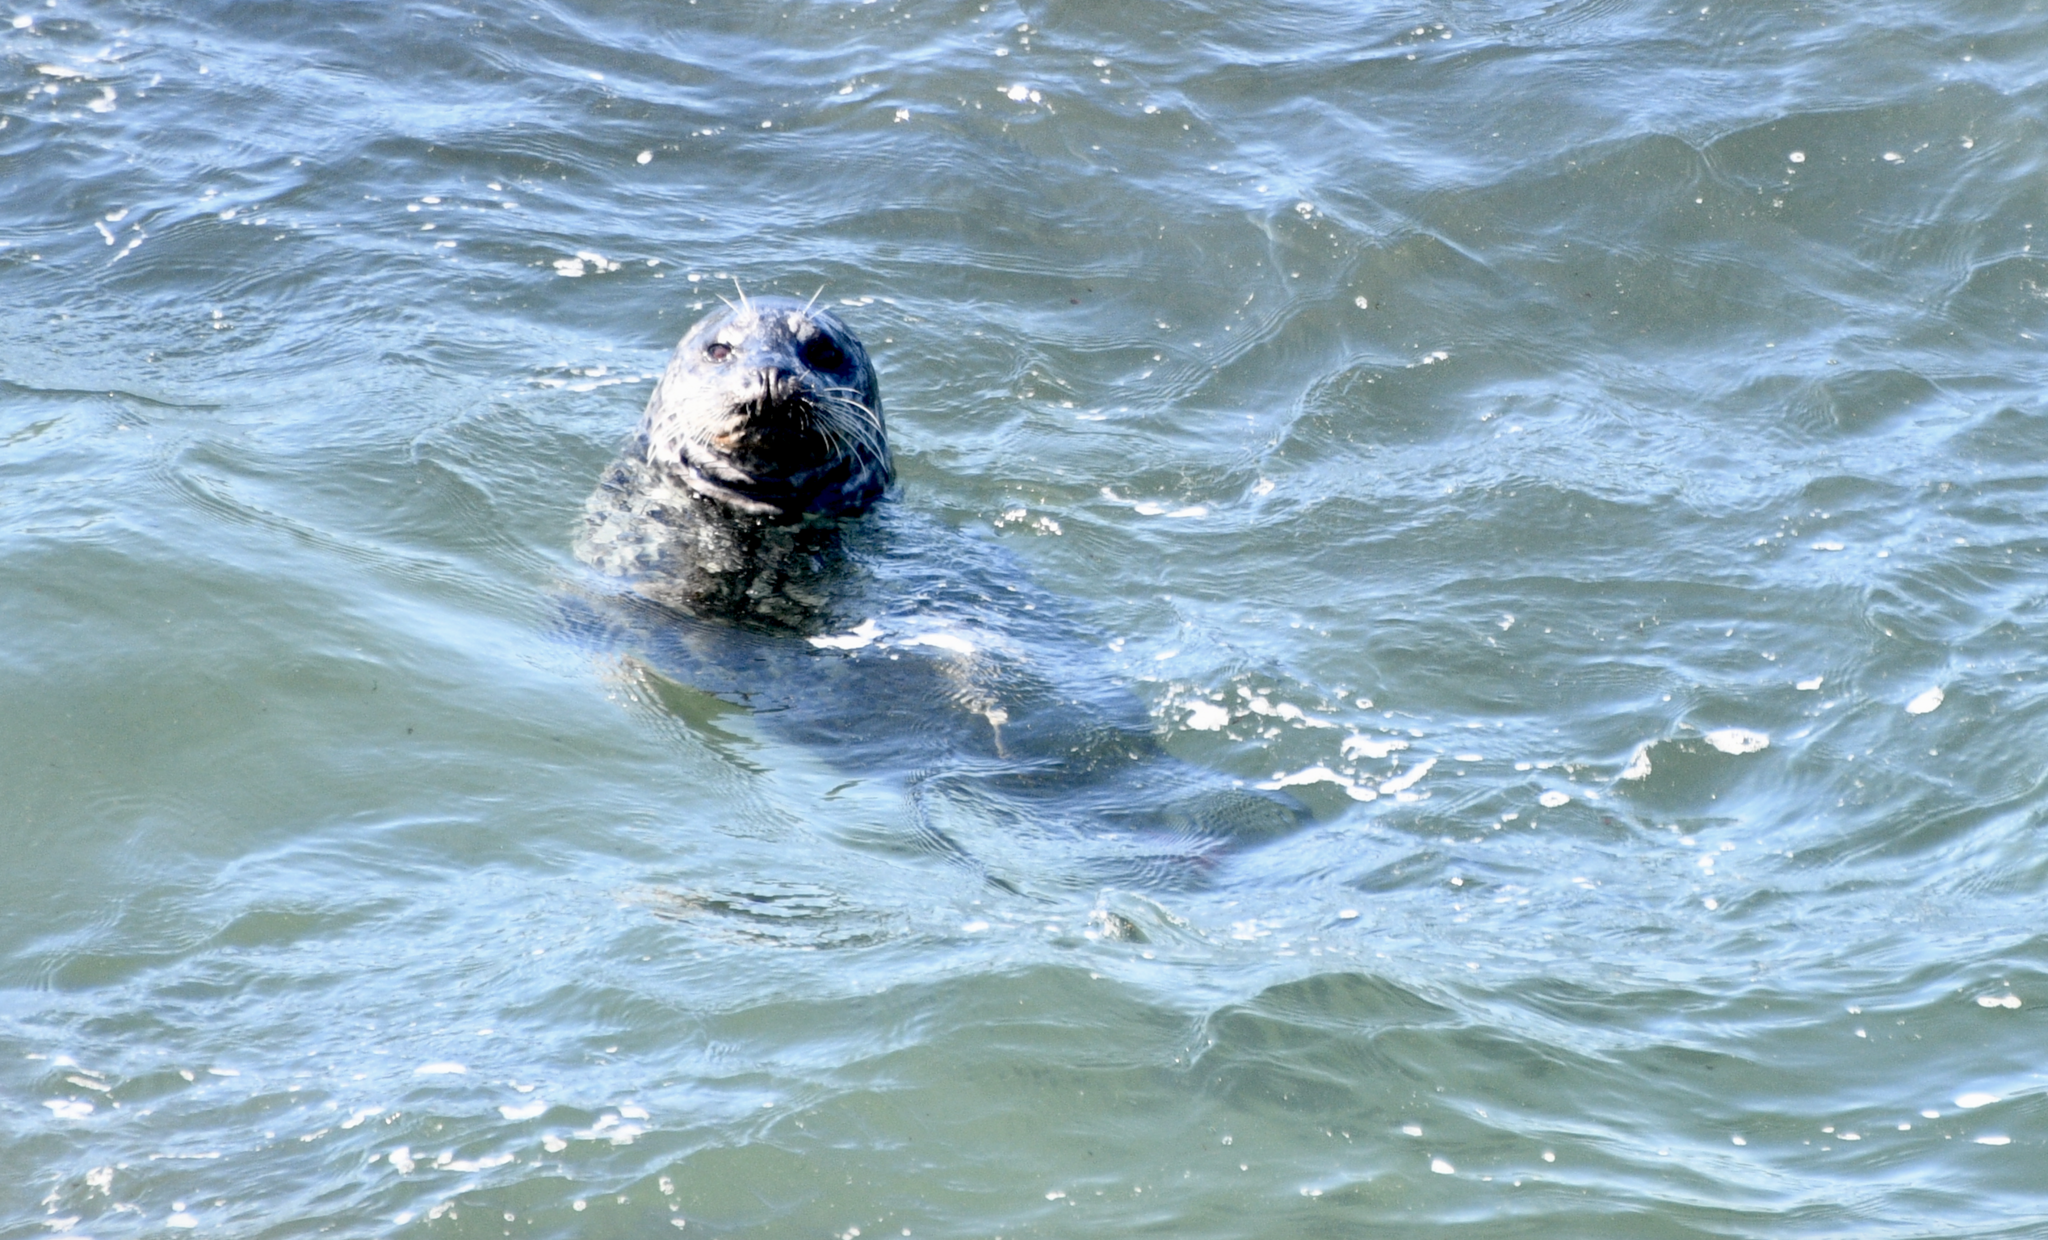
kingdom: Animalia
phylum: Chordata
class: Mammalia
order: Carnivora
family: Phocidae
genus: Phoca
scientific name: Phoca vitulina
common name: Harbor seal
